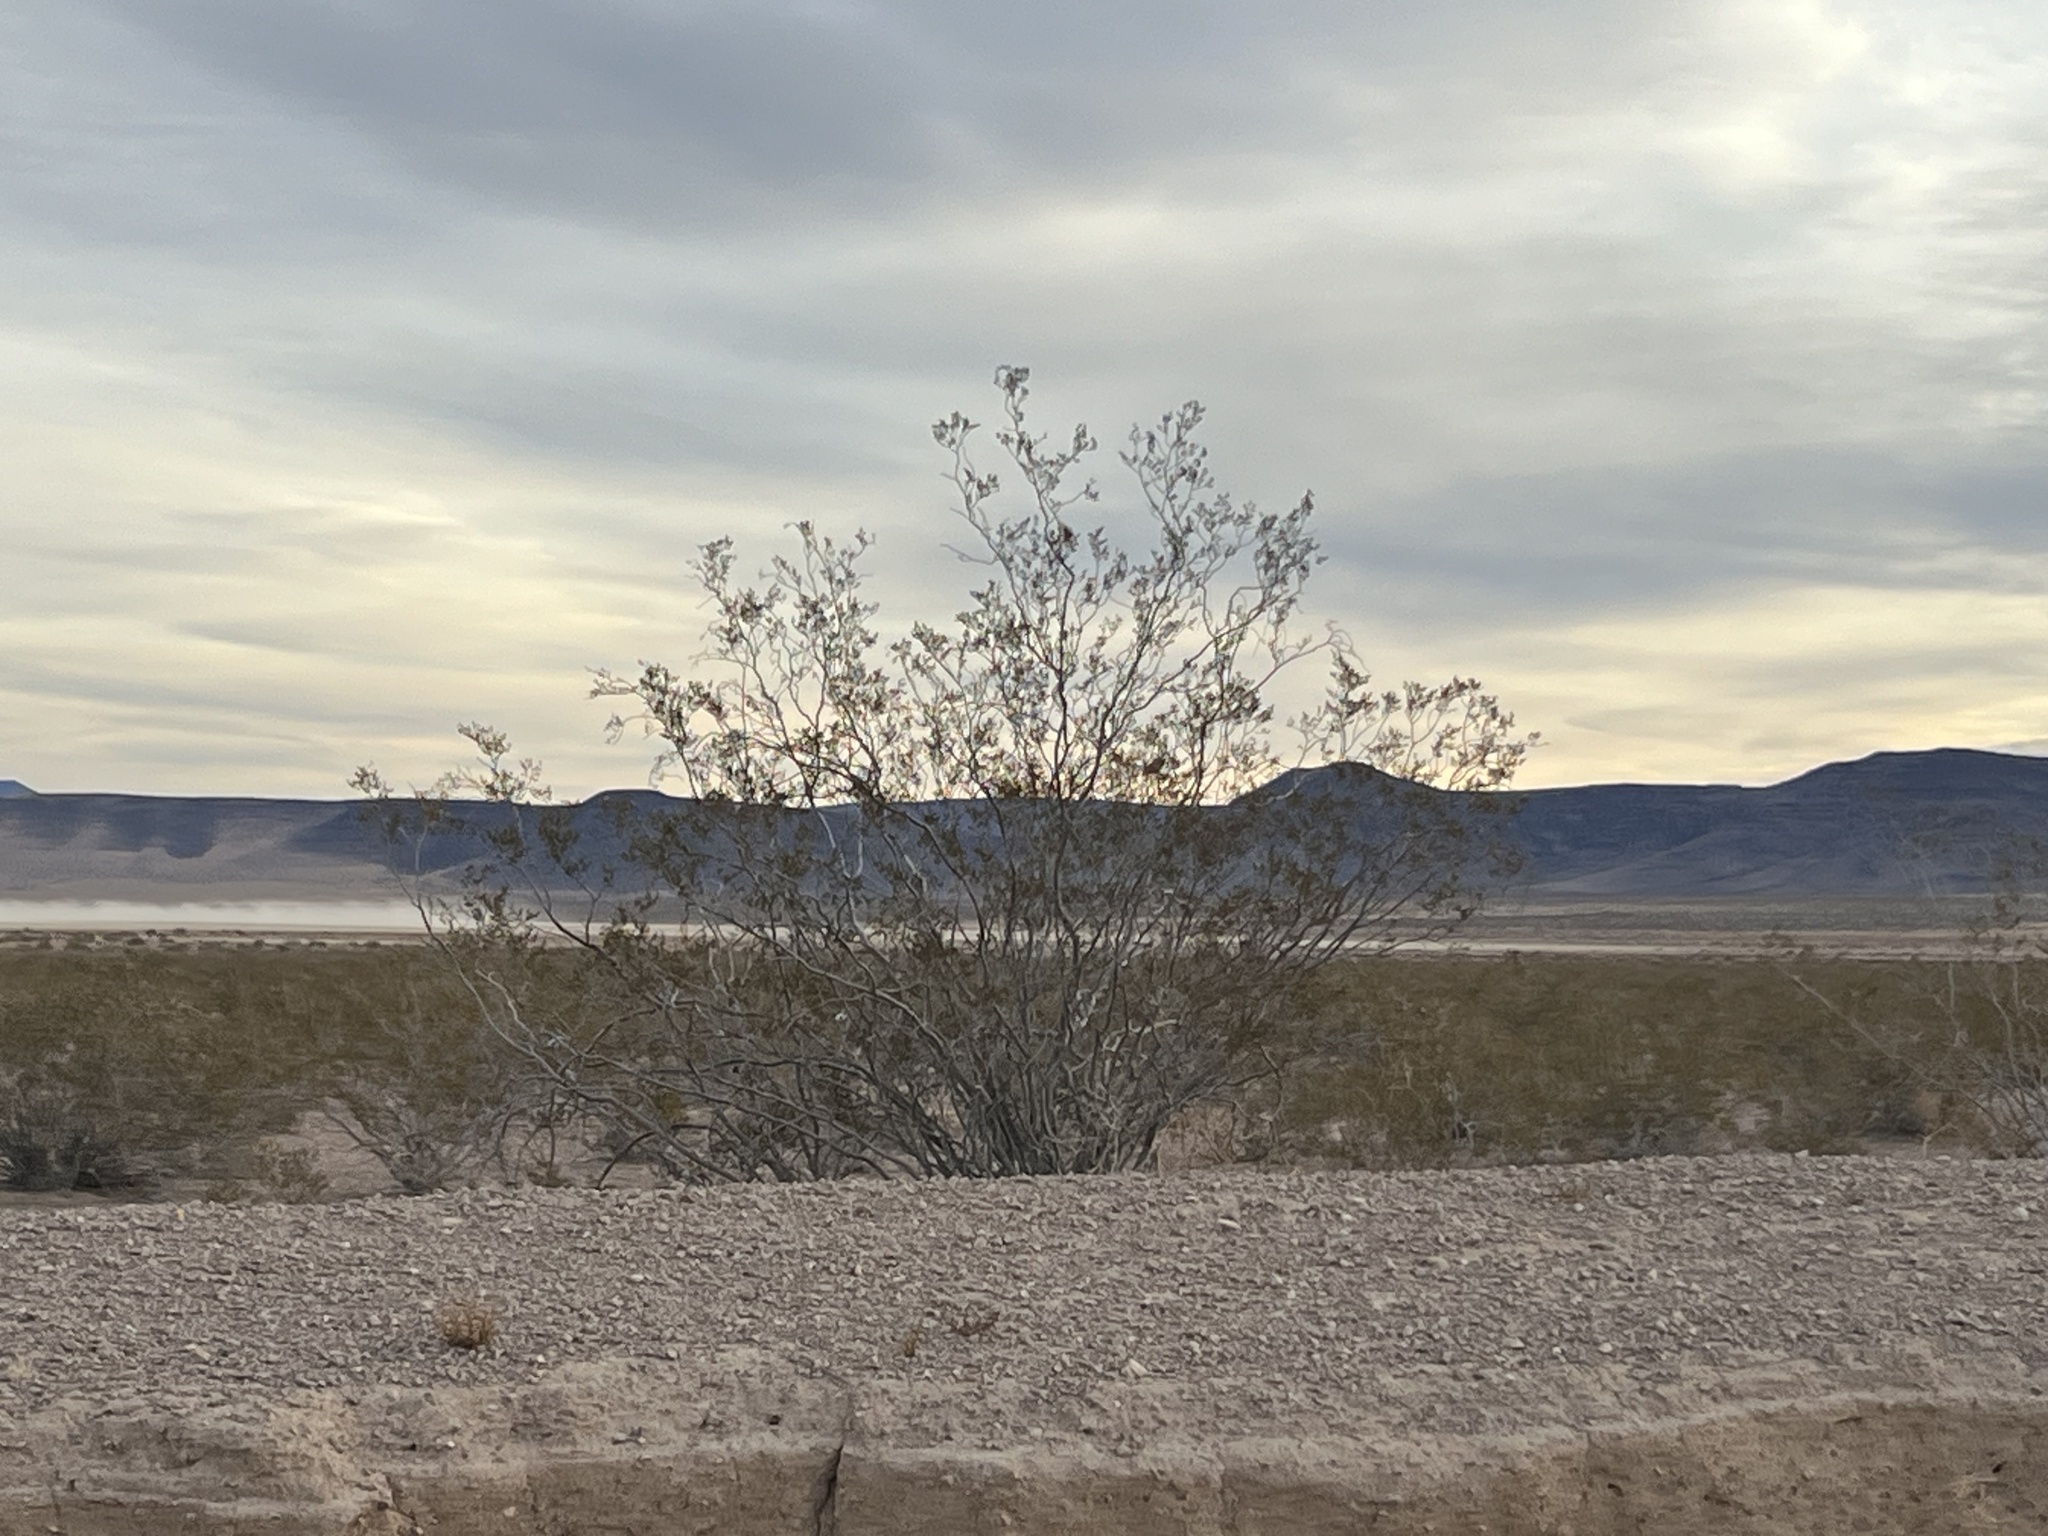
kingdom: Plantae
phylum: Tracheophyta
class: Magnoliopsida
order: Zygophyllales
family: Zygophyllaceae
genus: Larrea
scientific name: Larrea tridentata
